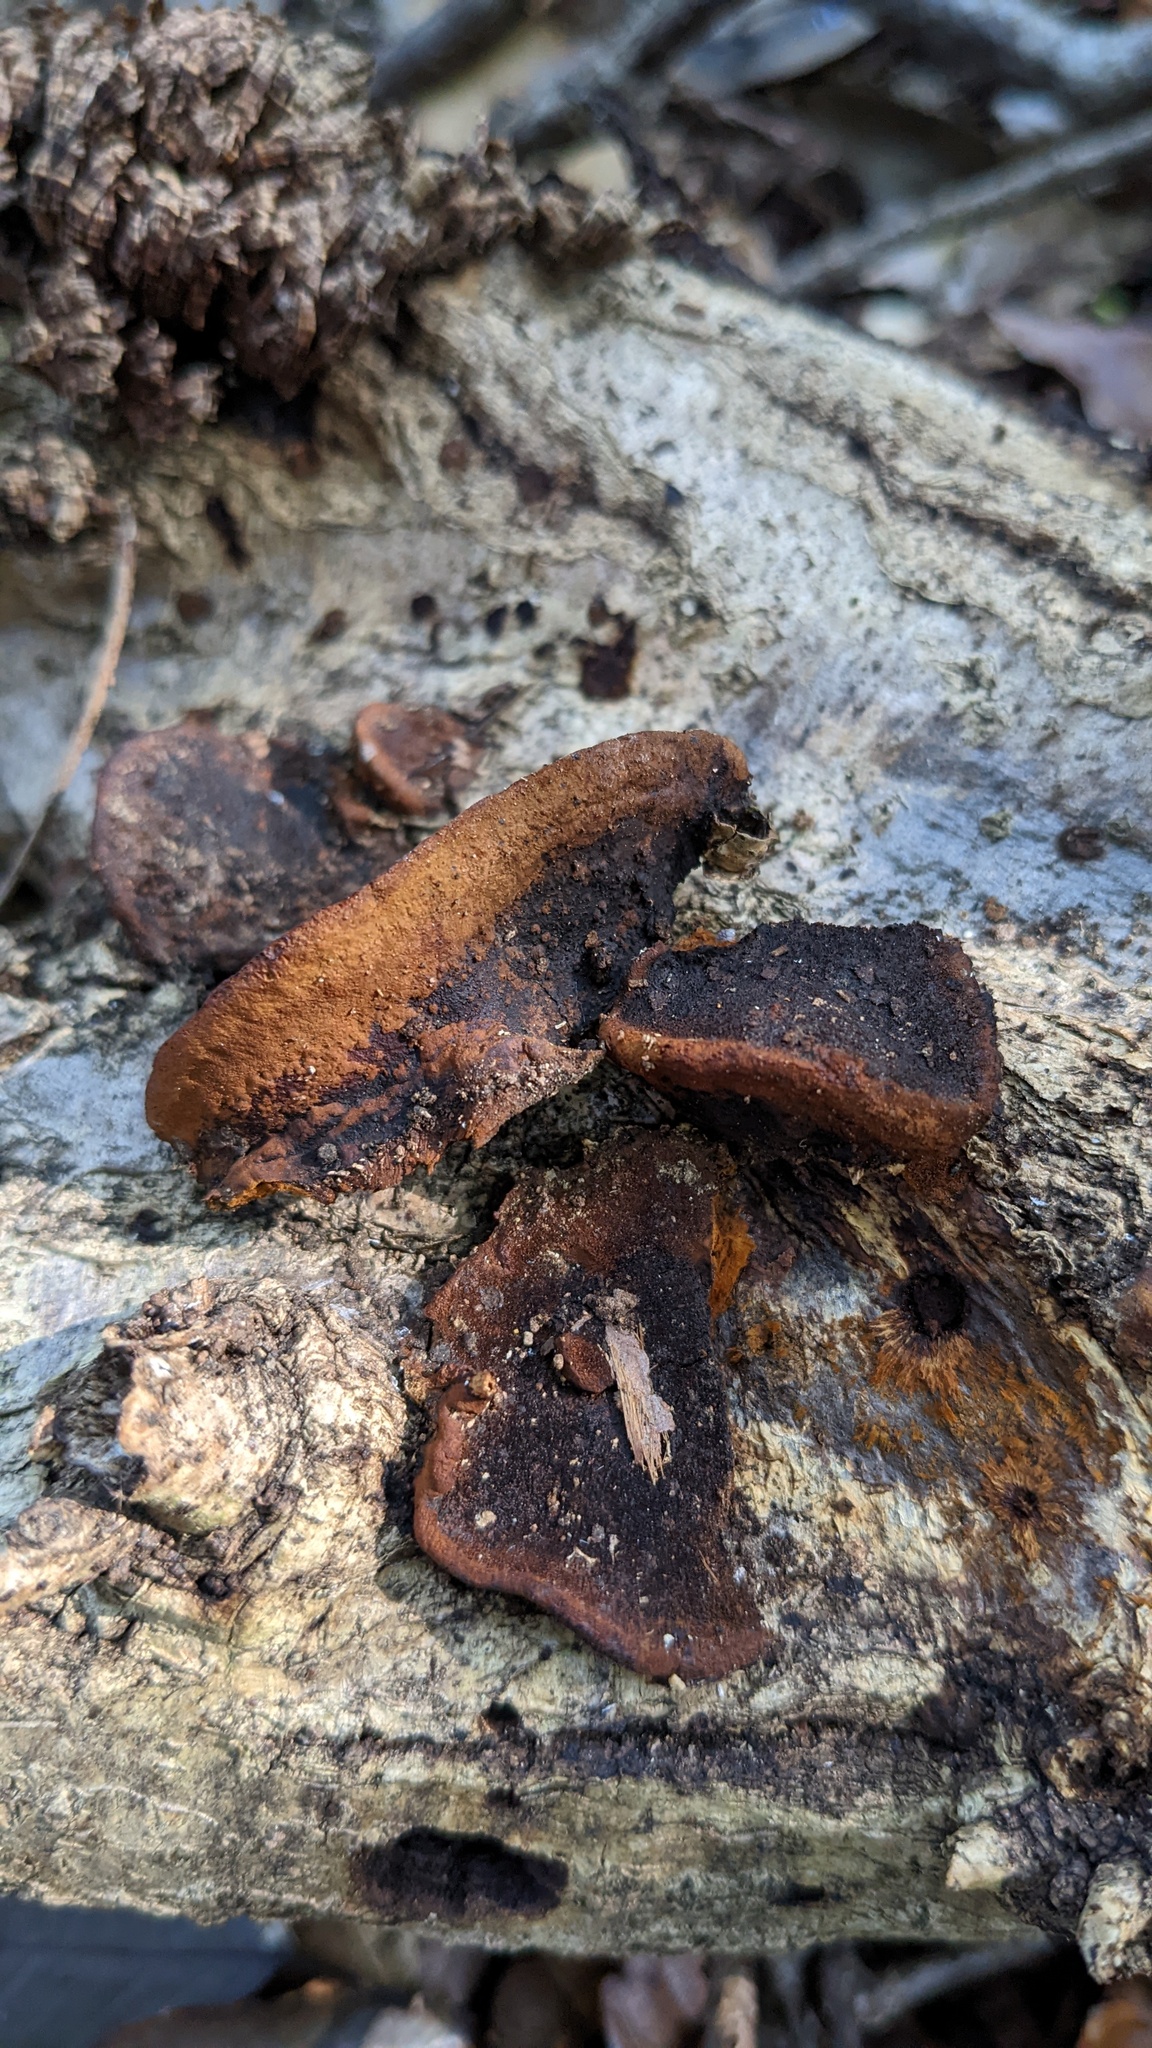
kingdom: Fungi
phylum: Basidiomycota
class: Agaricomycetes
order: Hymenochaetales
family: Hymenochaetaceae
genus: Phellinus
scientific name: Phellinus gilvus
